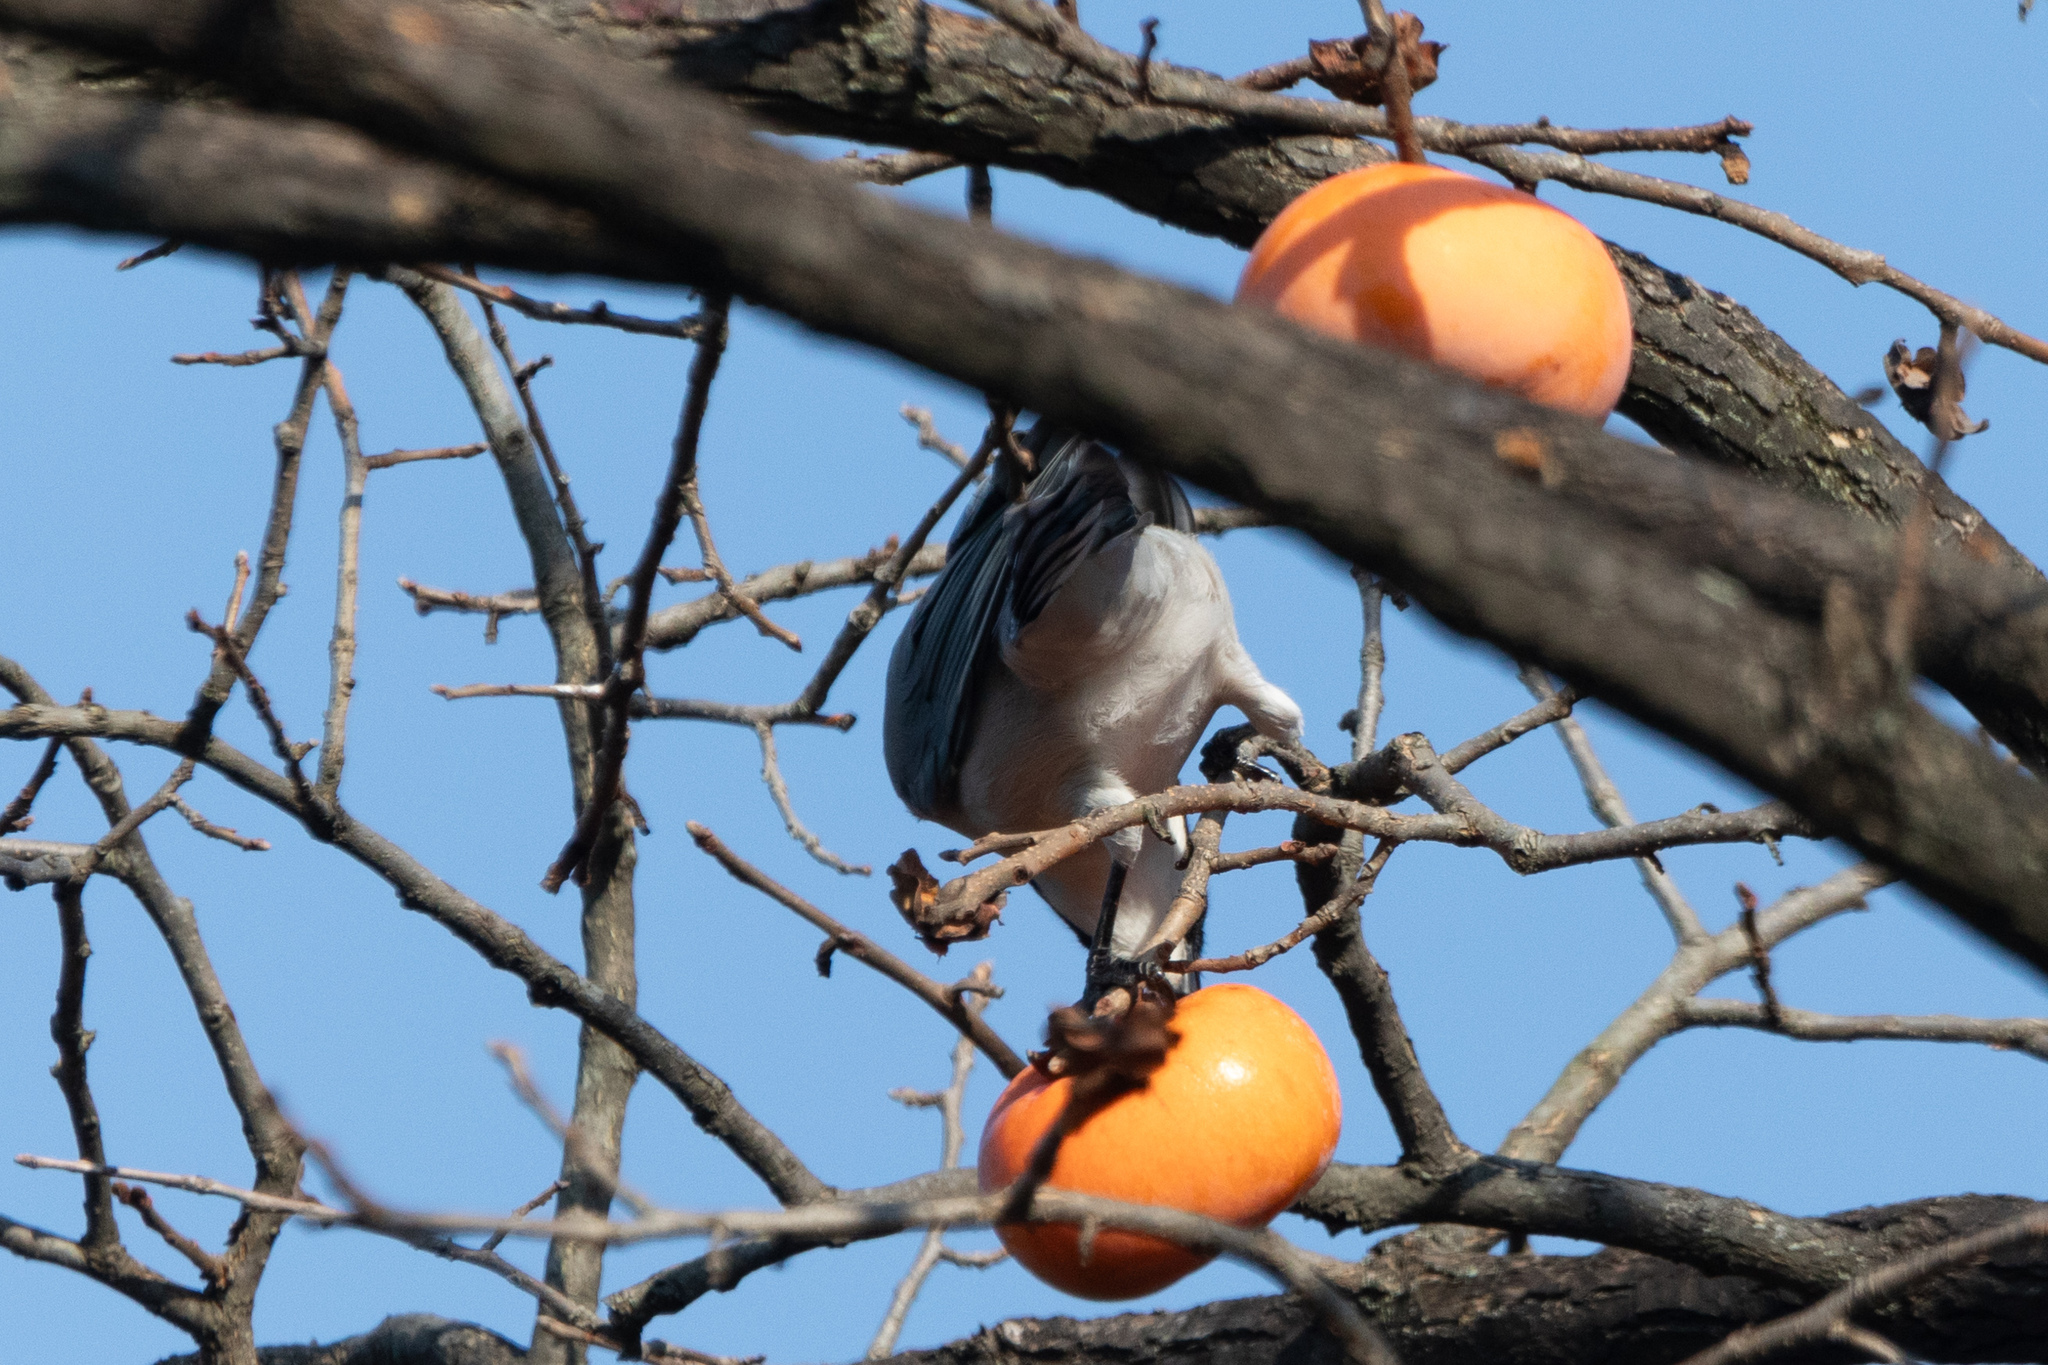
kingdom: Animalia
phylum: Chordata
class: Aves
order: Passeriformes
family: Corvidae
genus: Cyanopica
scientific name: Cyanopica cyanus
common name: Azure-winged magpie
